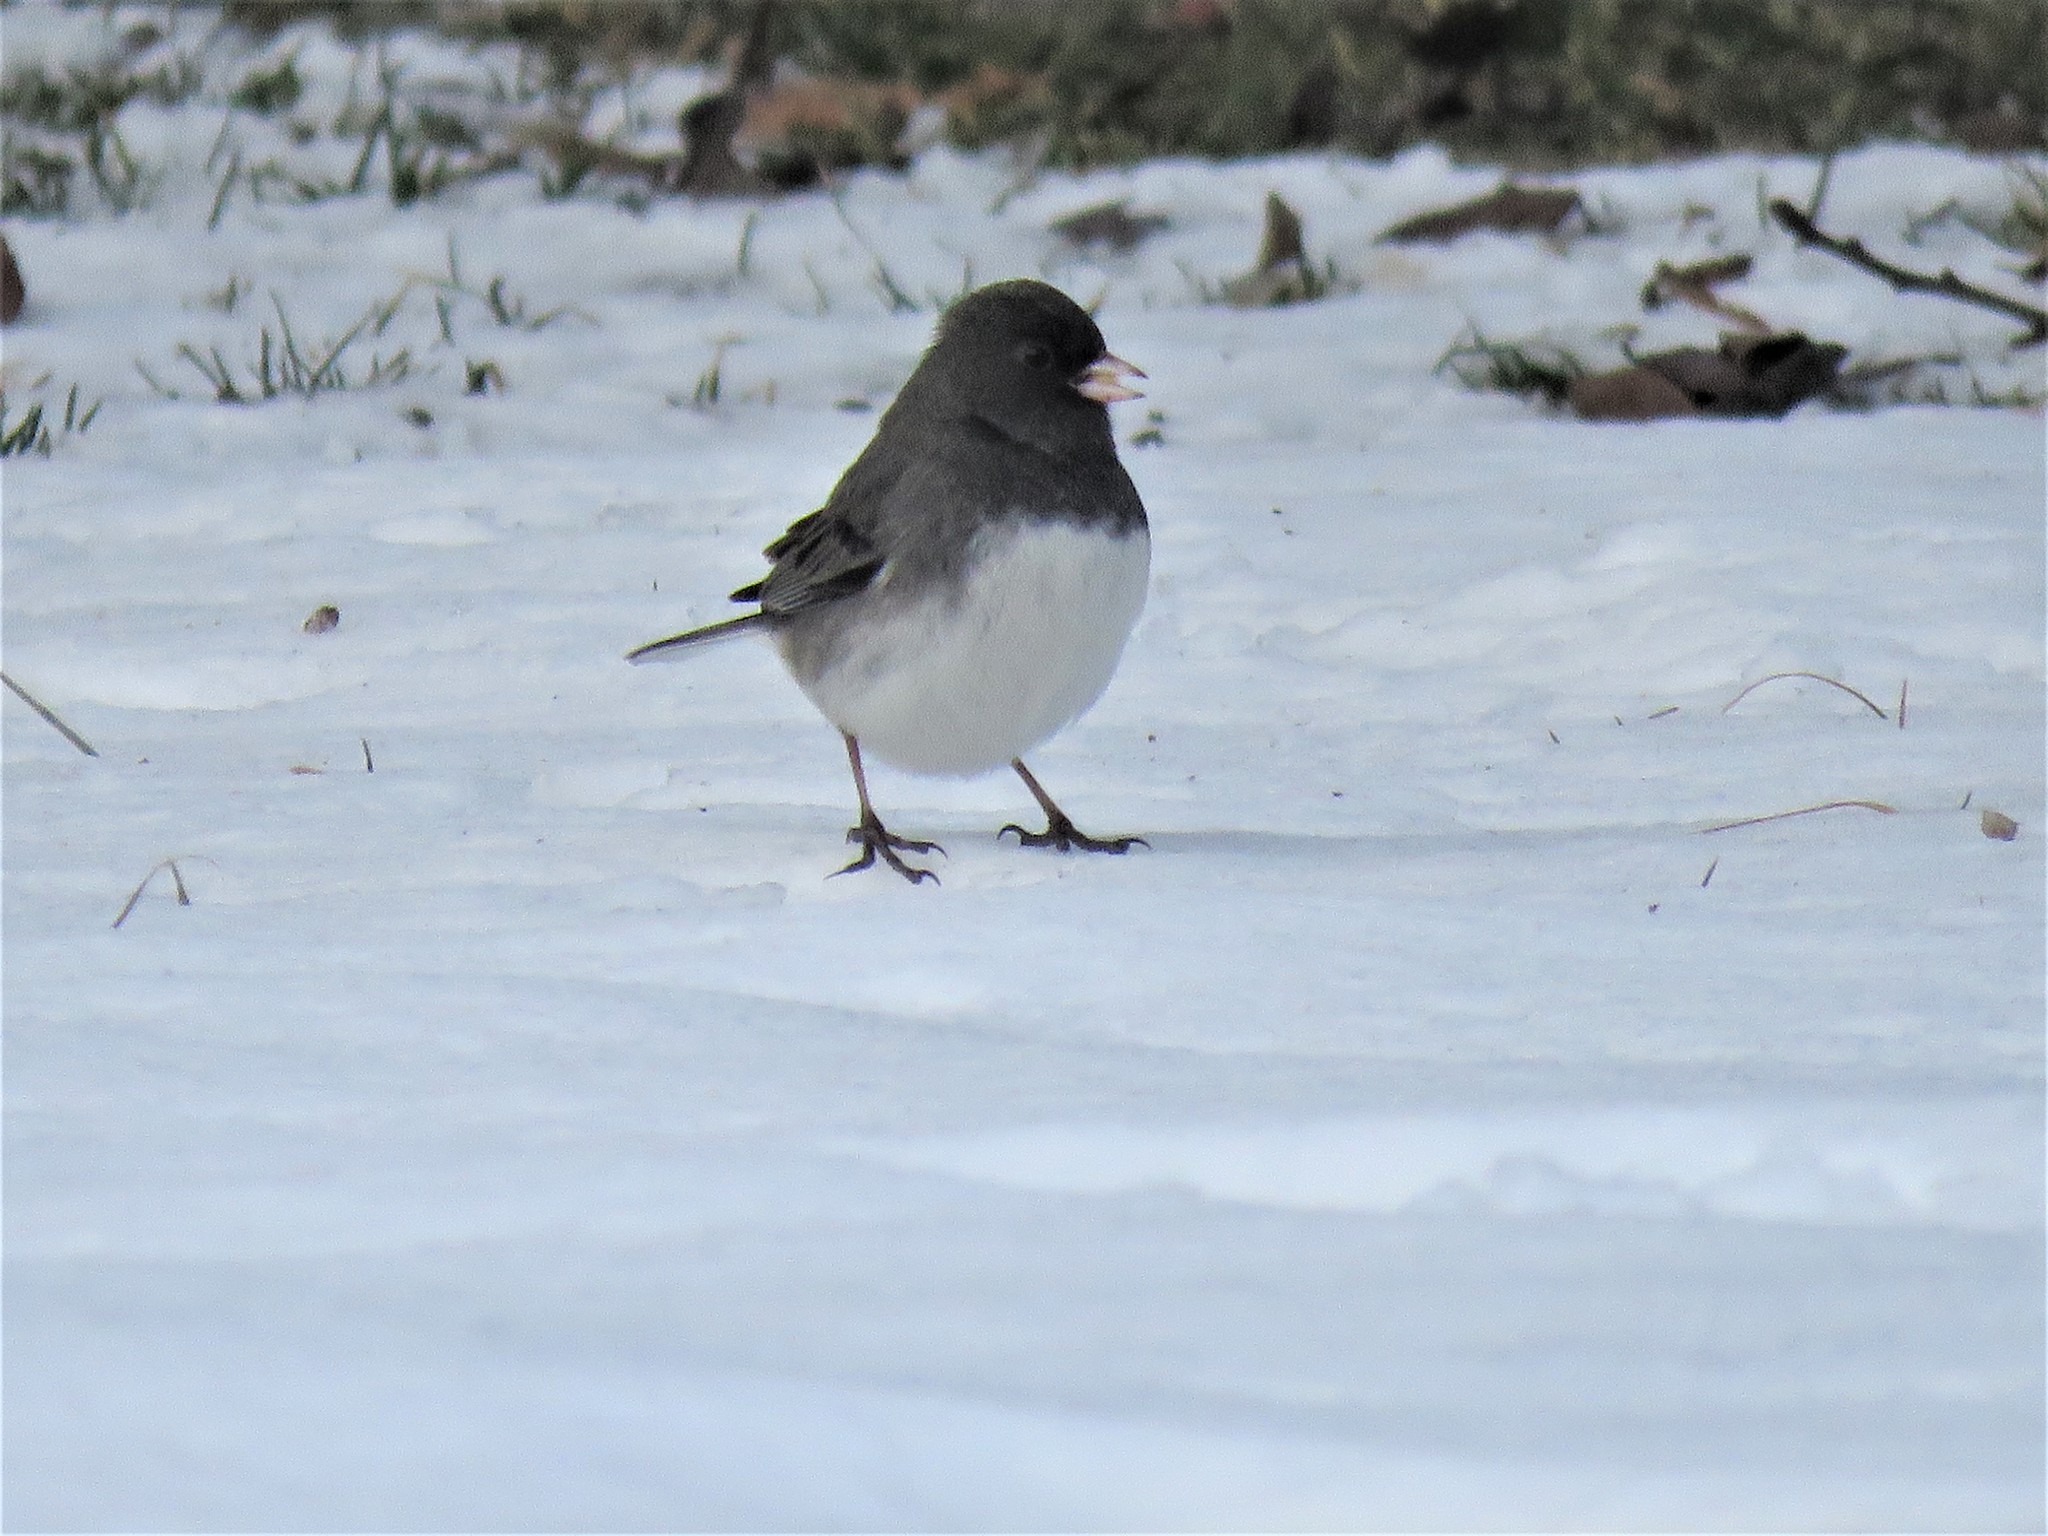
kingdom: Animalia
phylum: Chordata
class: Aves
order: Passeriformes
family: Passerellidae
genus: Junco
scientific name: Junco hyemalis
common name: Dark-eyed junco
